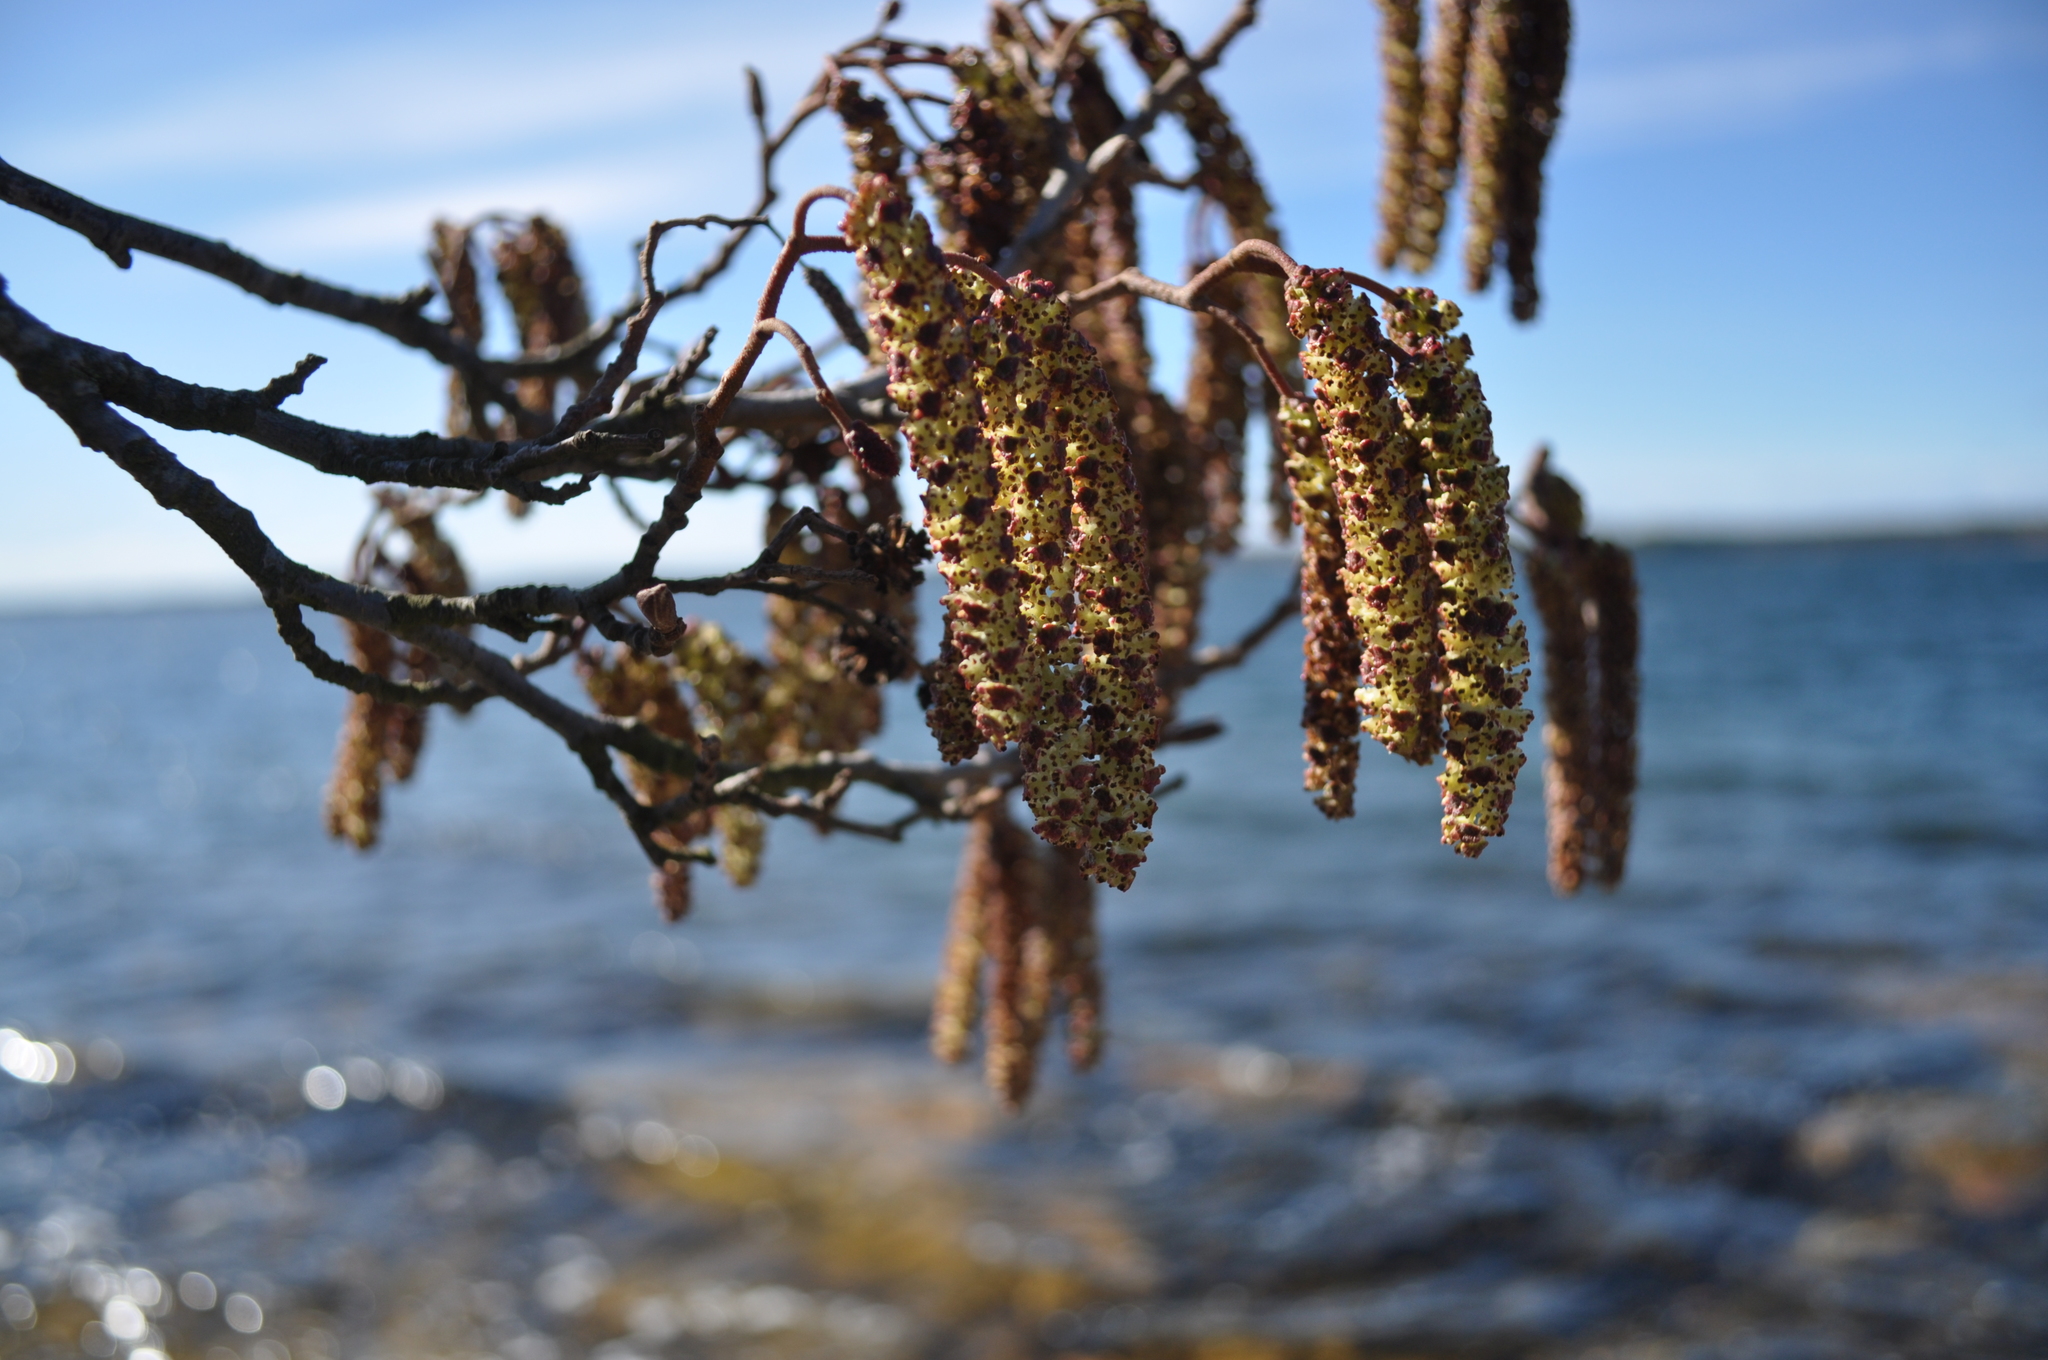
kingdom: Plantae
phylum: Tracheophyta
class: Magnoliopsida
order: Fagales
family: Betulaceae
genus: Alnus
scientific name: Alnus glutinosa
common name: Black alder
